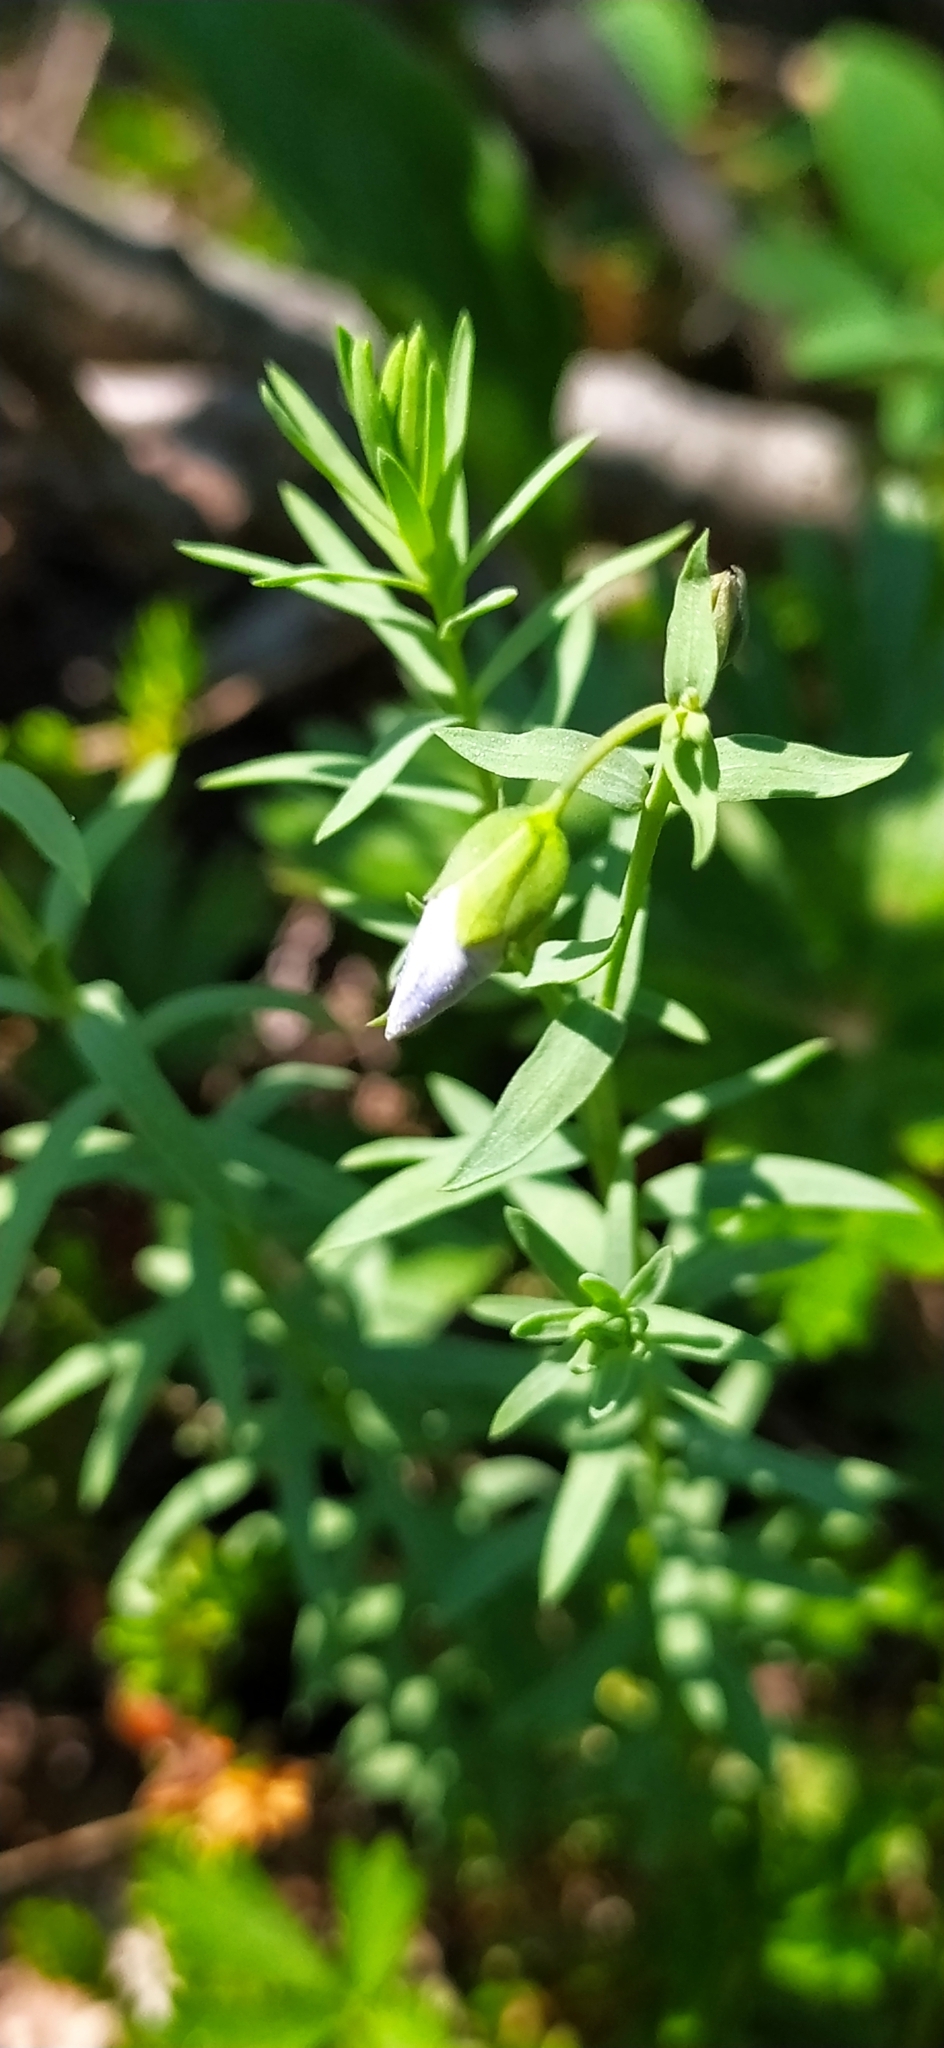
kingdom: Plantae
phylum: Tracheophyta
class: Magnoliopsida
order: Malpighiales
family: Linaceae
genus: Linum
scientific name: Linum komarovii
